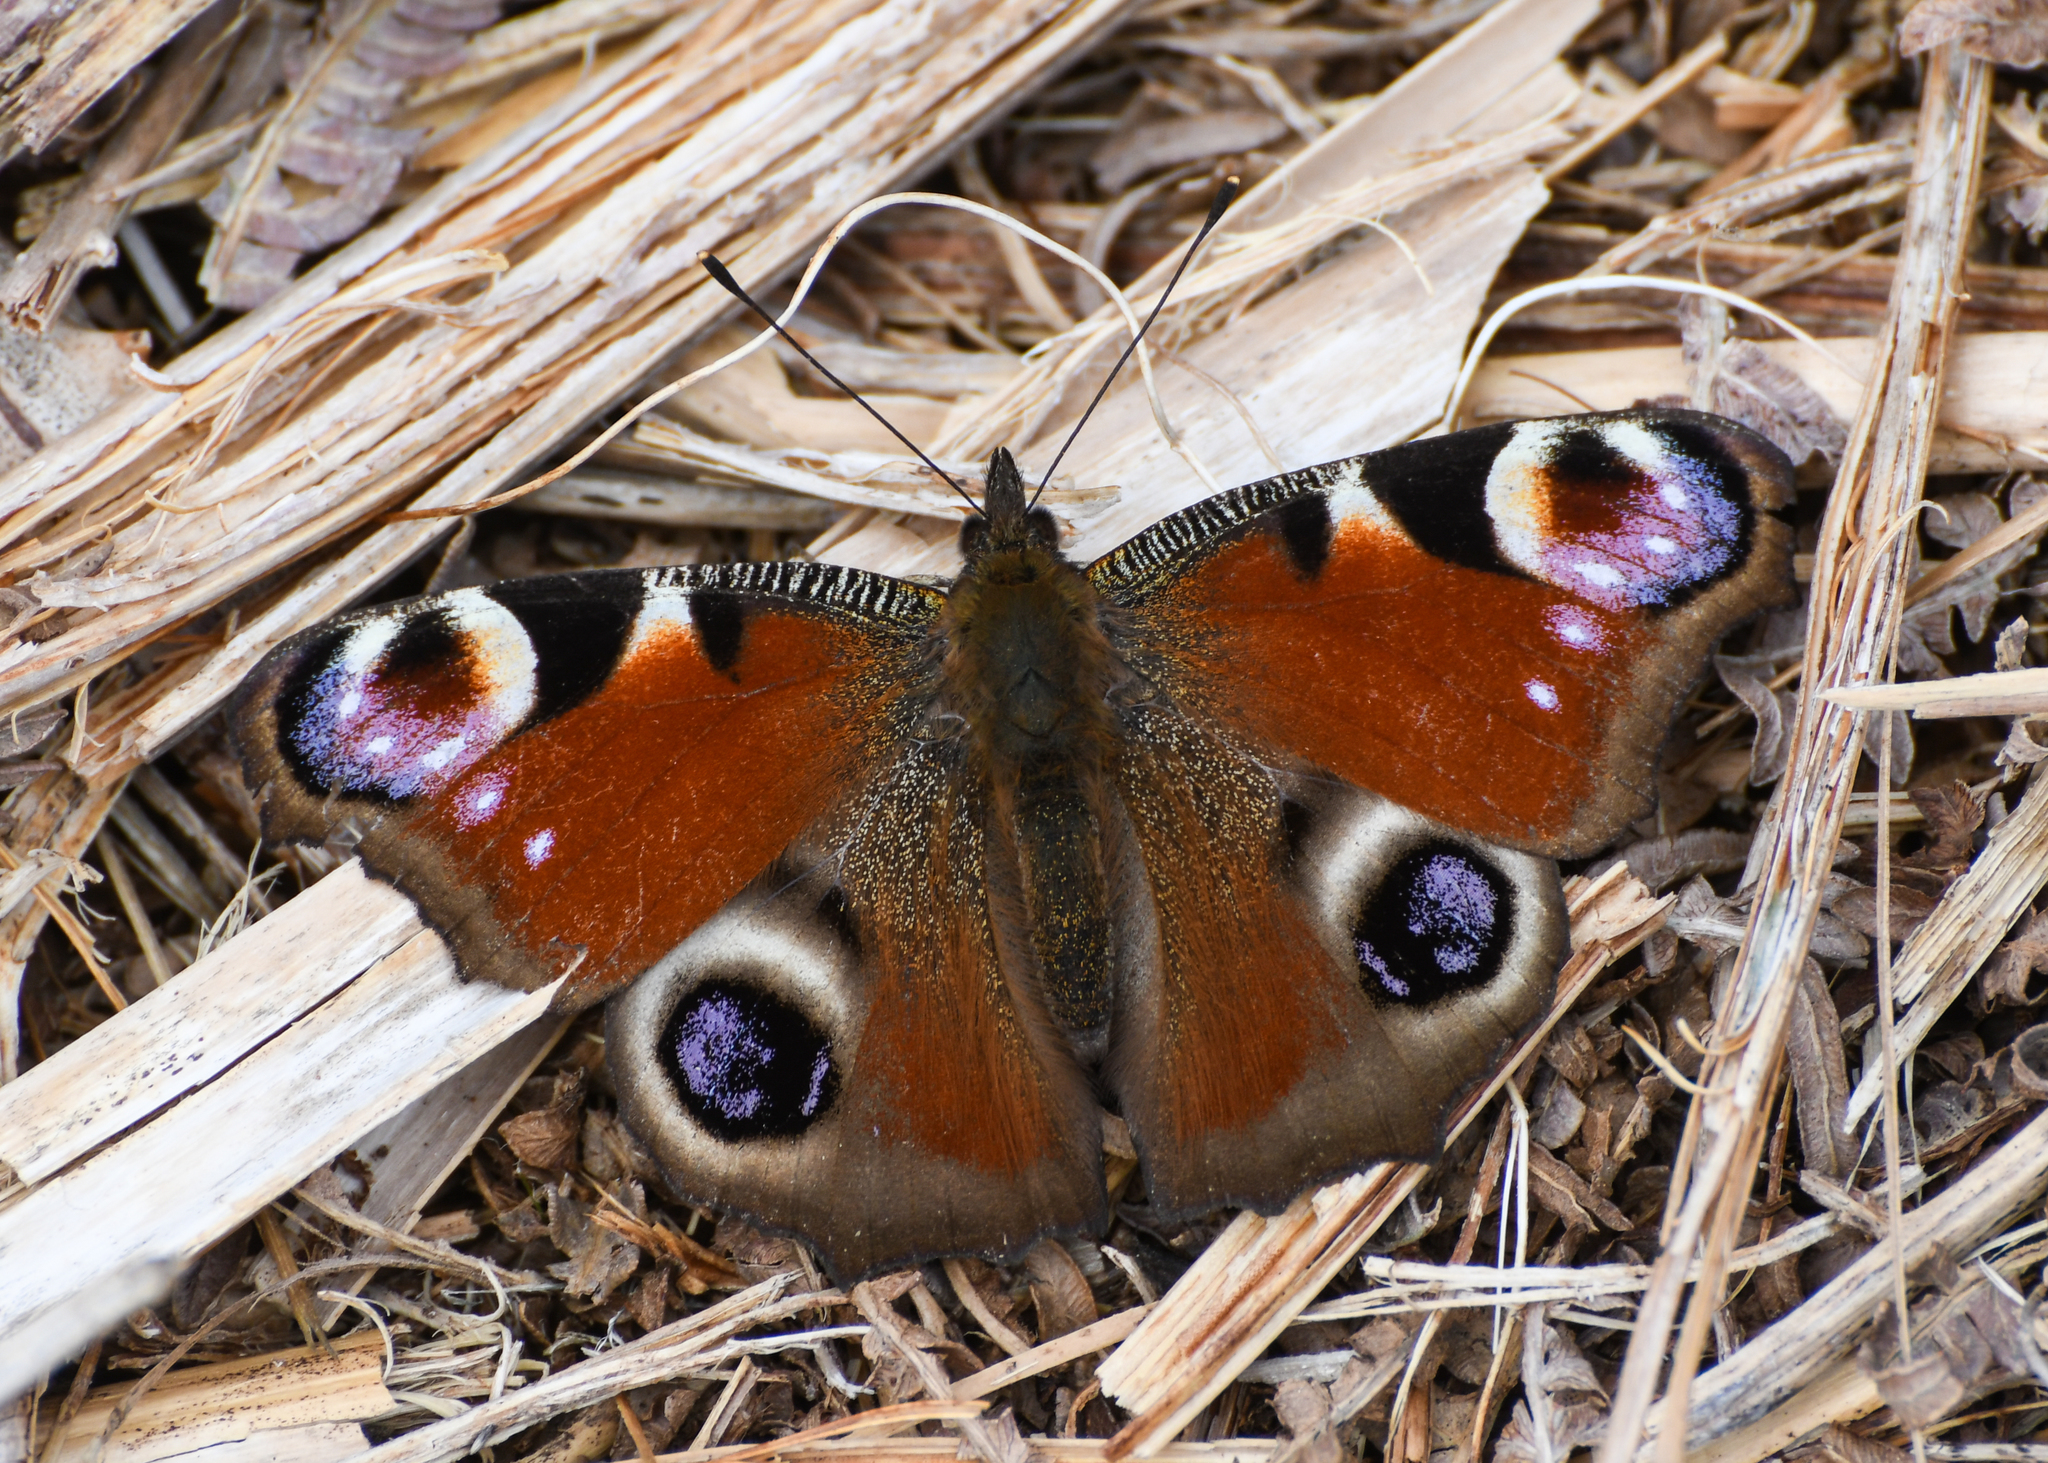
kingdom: Animalia
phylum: Arthropoda
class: Insecta
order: Lepidoptera
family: Nymphalidae
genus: Aglais
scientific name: Aglais io
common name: Peacock
